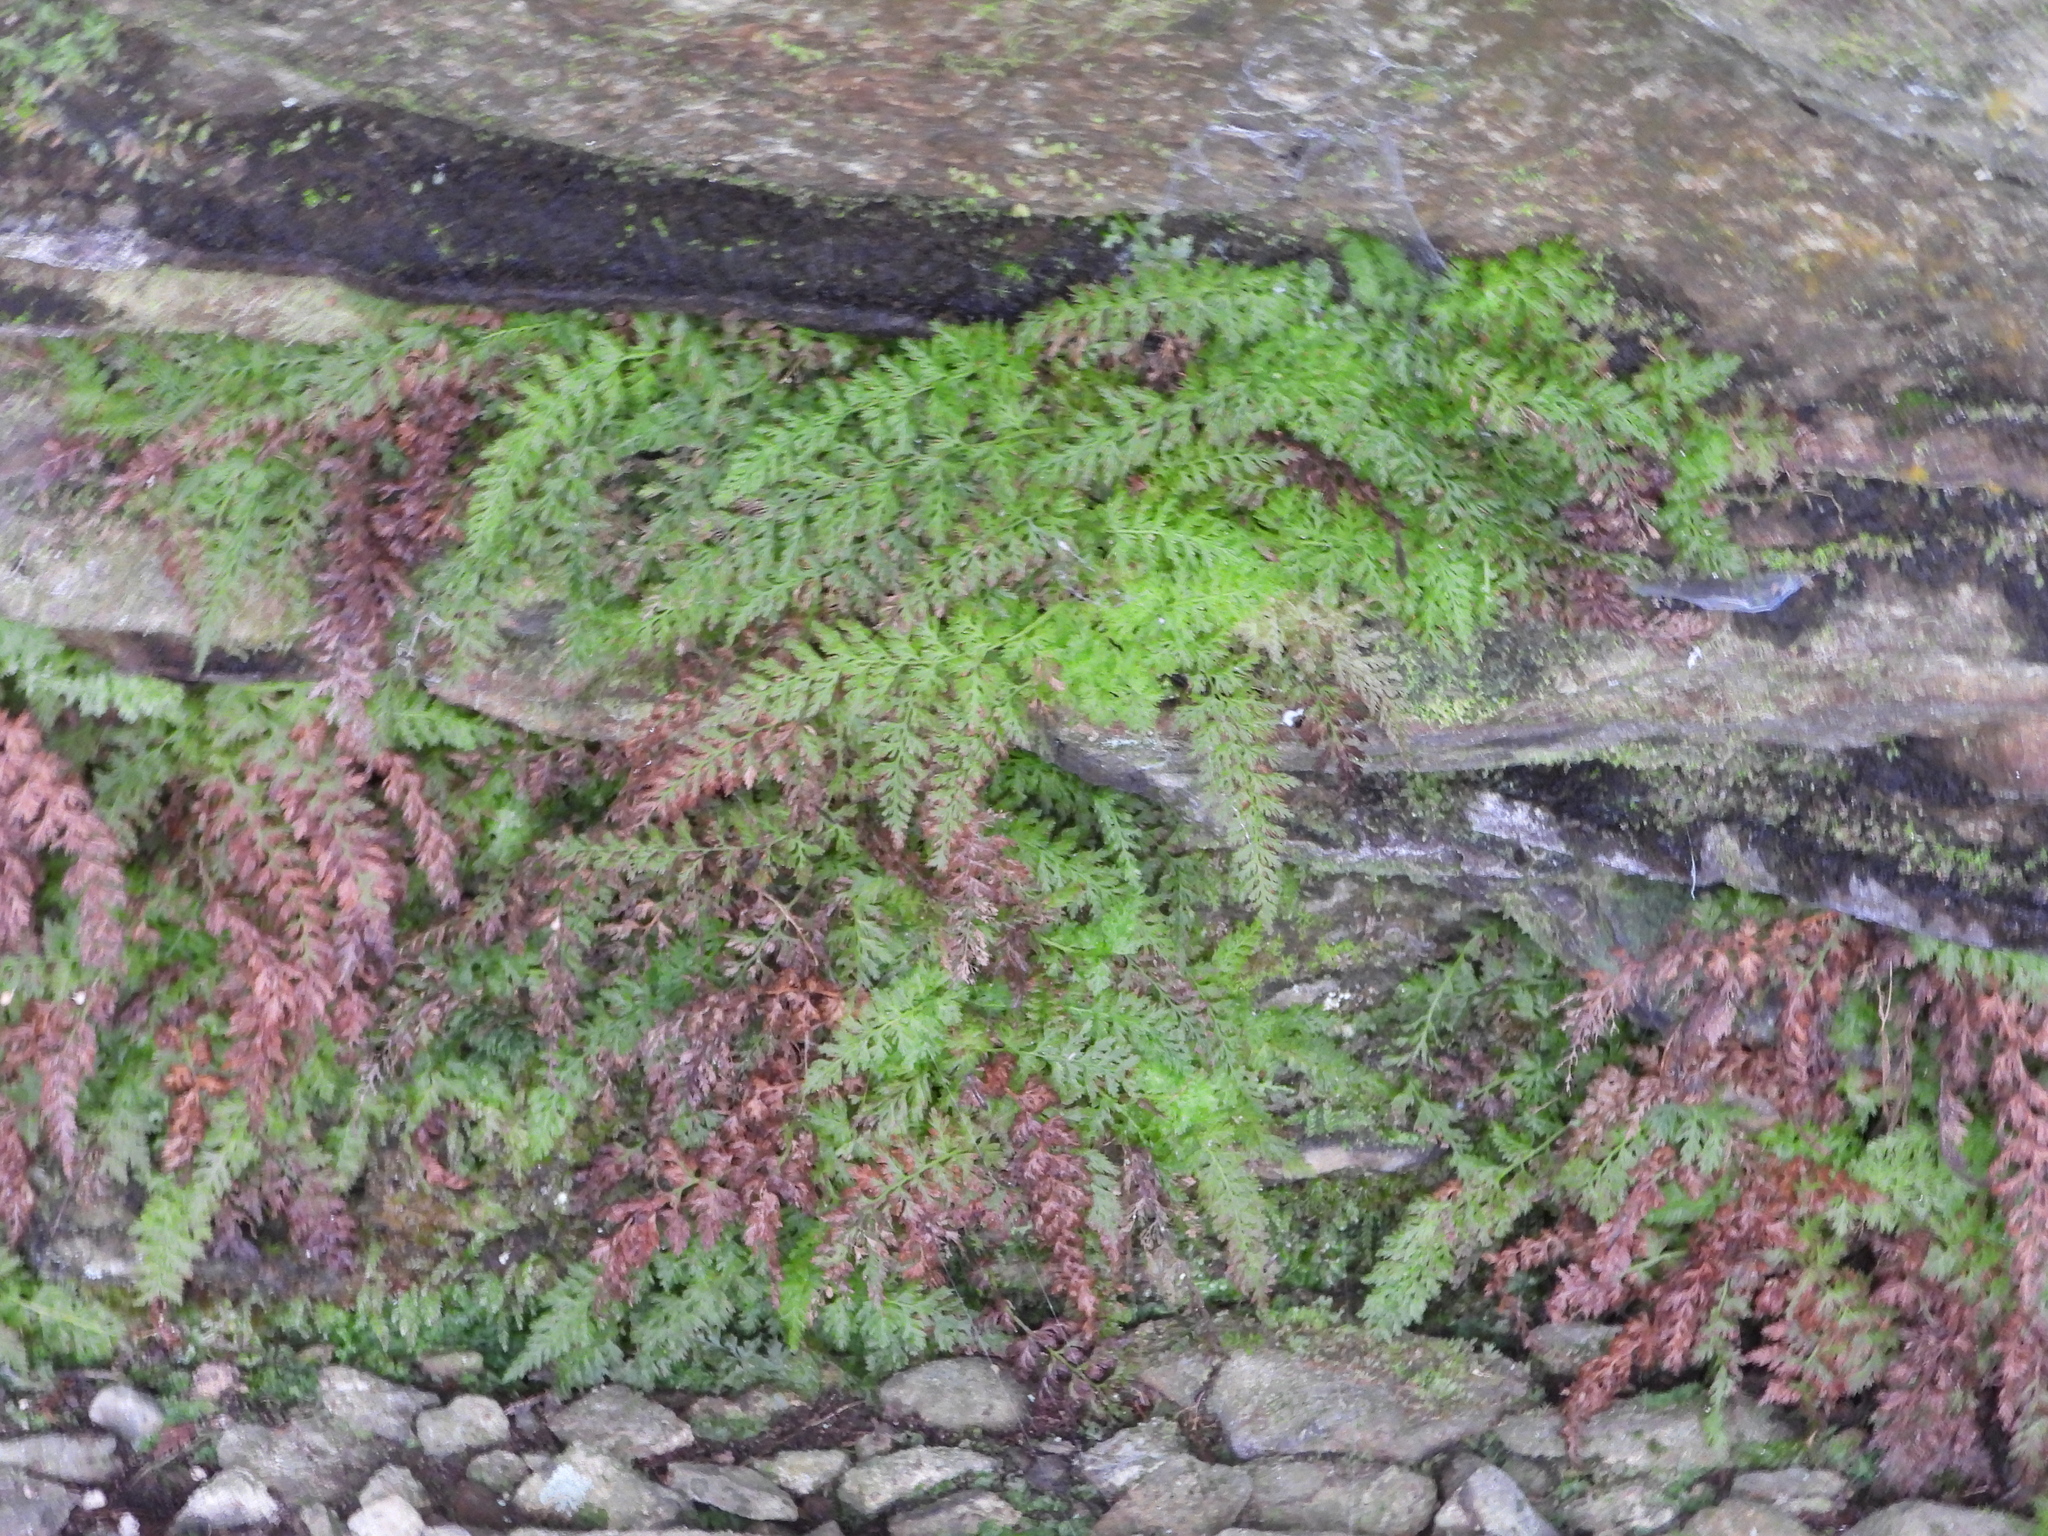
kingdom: Plantae
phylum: Tracheophyta
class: Polypodiopsida
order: Hymenophyllales
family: Hymenophyllaceae
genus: Vandenboschia
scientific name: Vandenboschia boschiana
